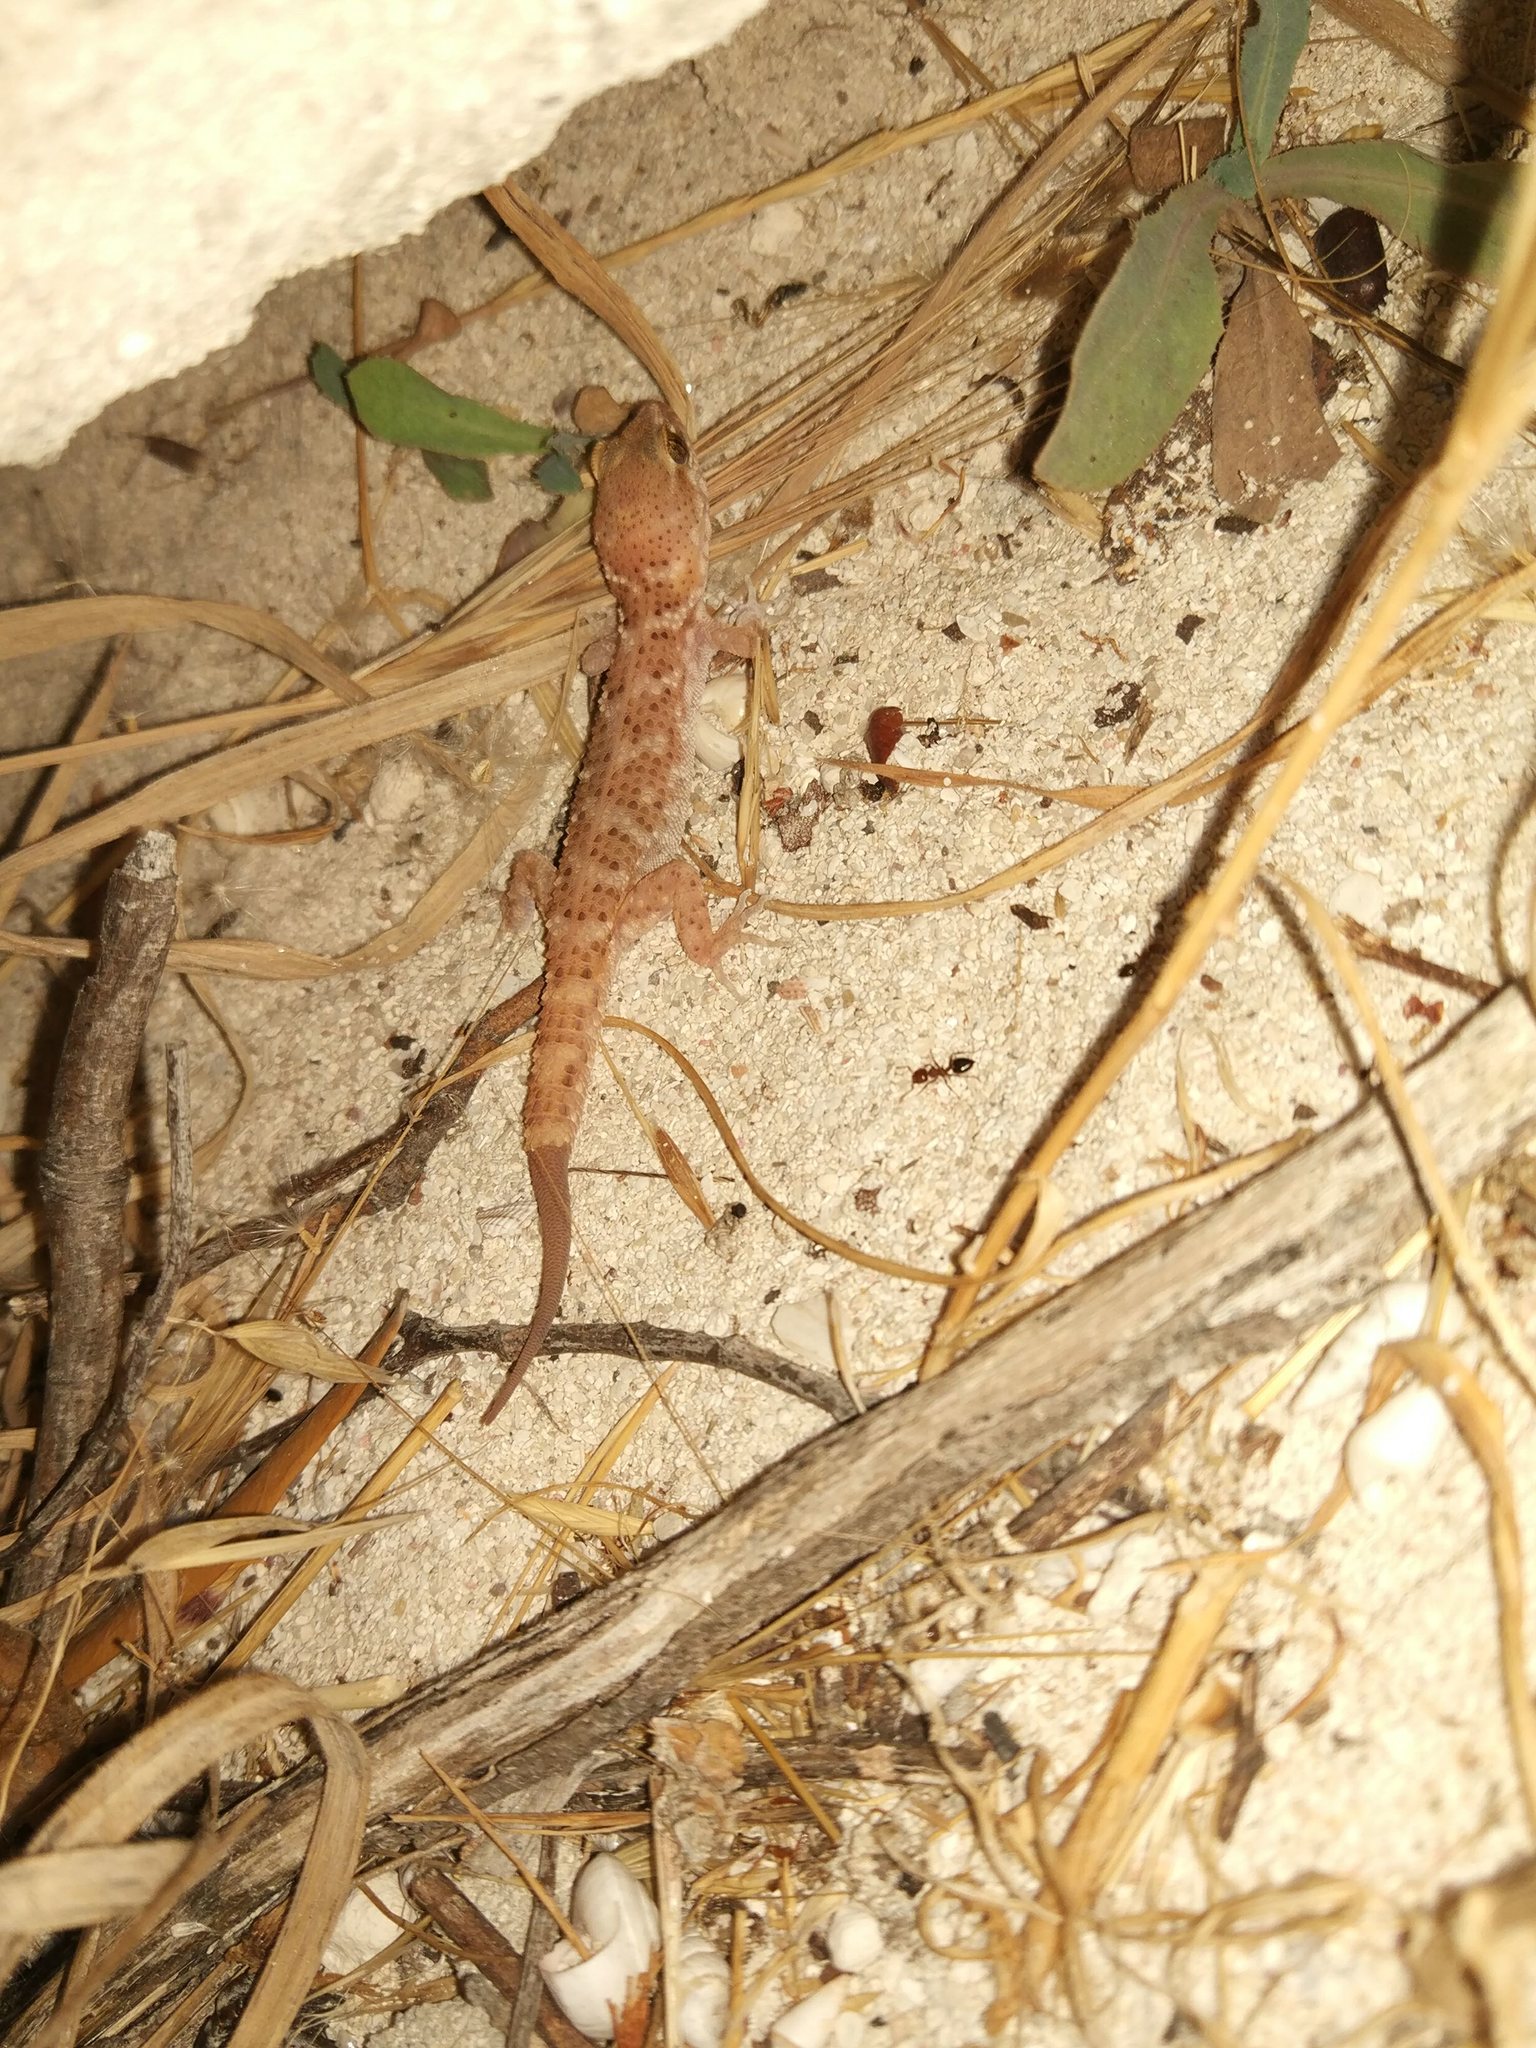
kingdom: Animalia
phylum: Chordata
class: Squamata
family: Gekkonidae
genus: Heteronotia
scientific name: Heteronotia binoei
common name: Bynoe's gecko
